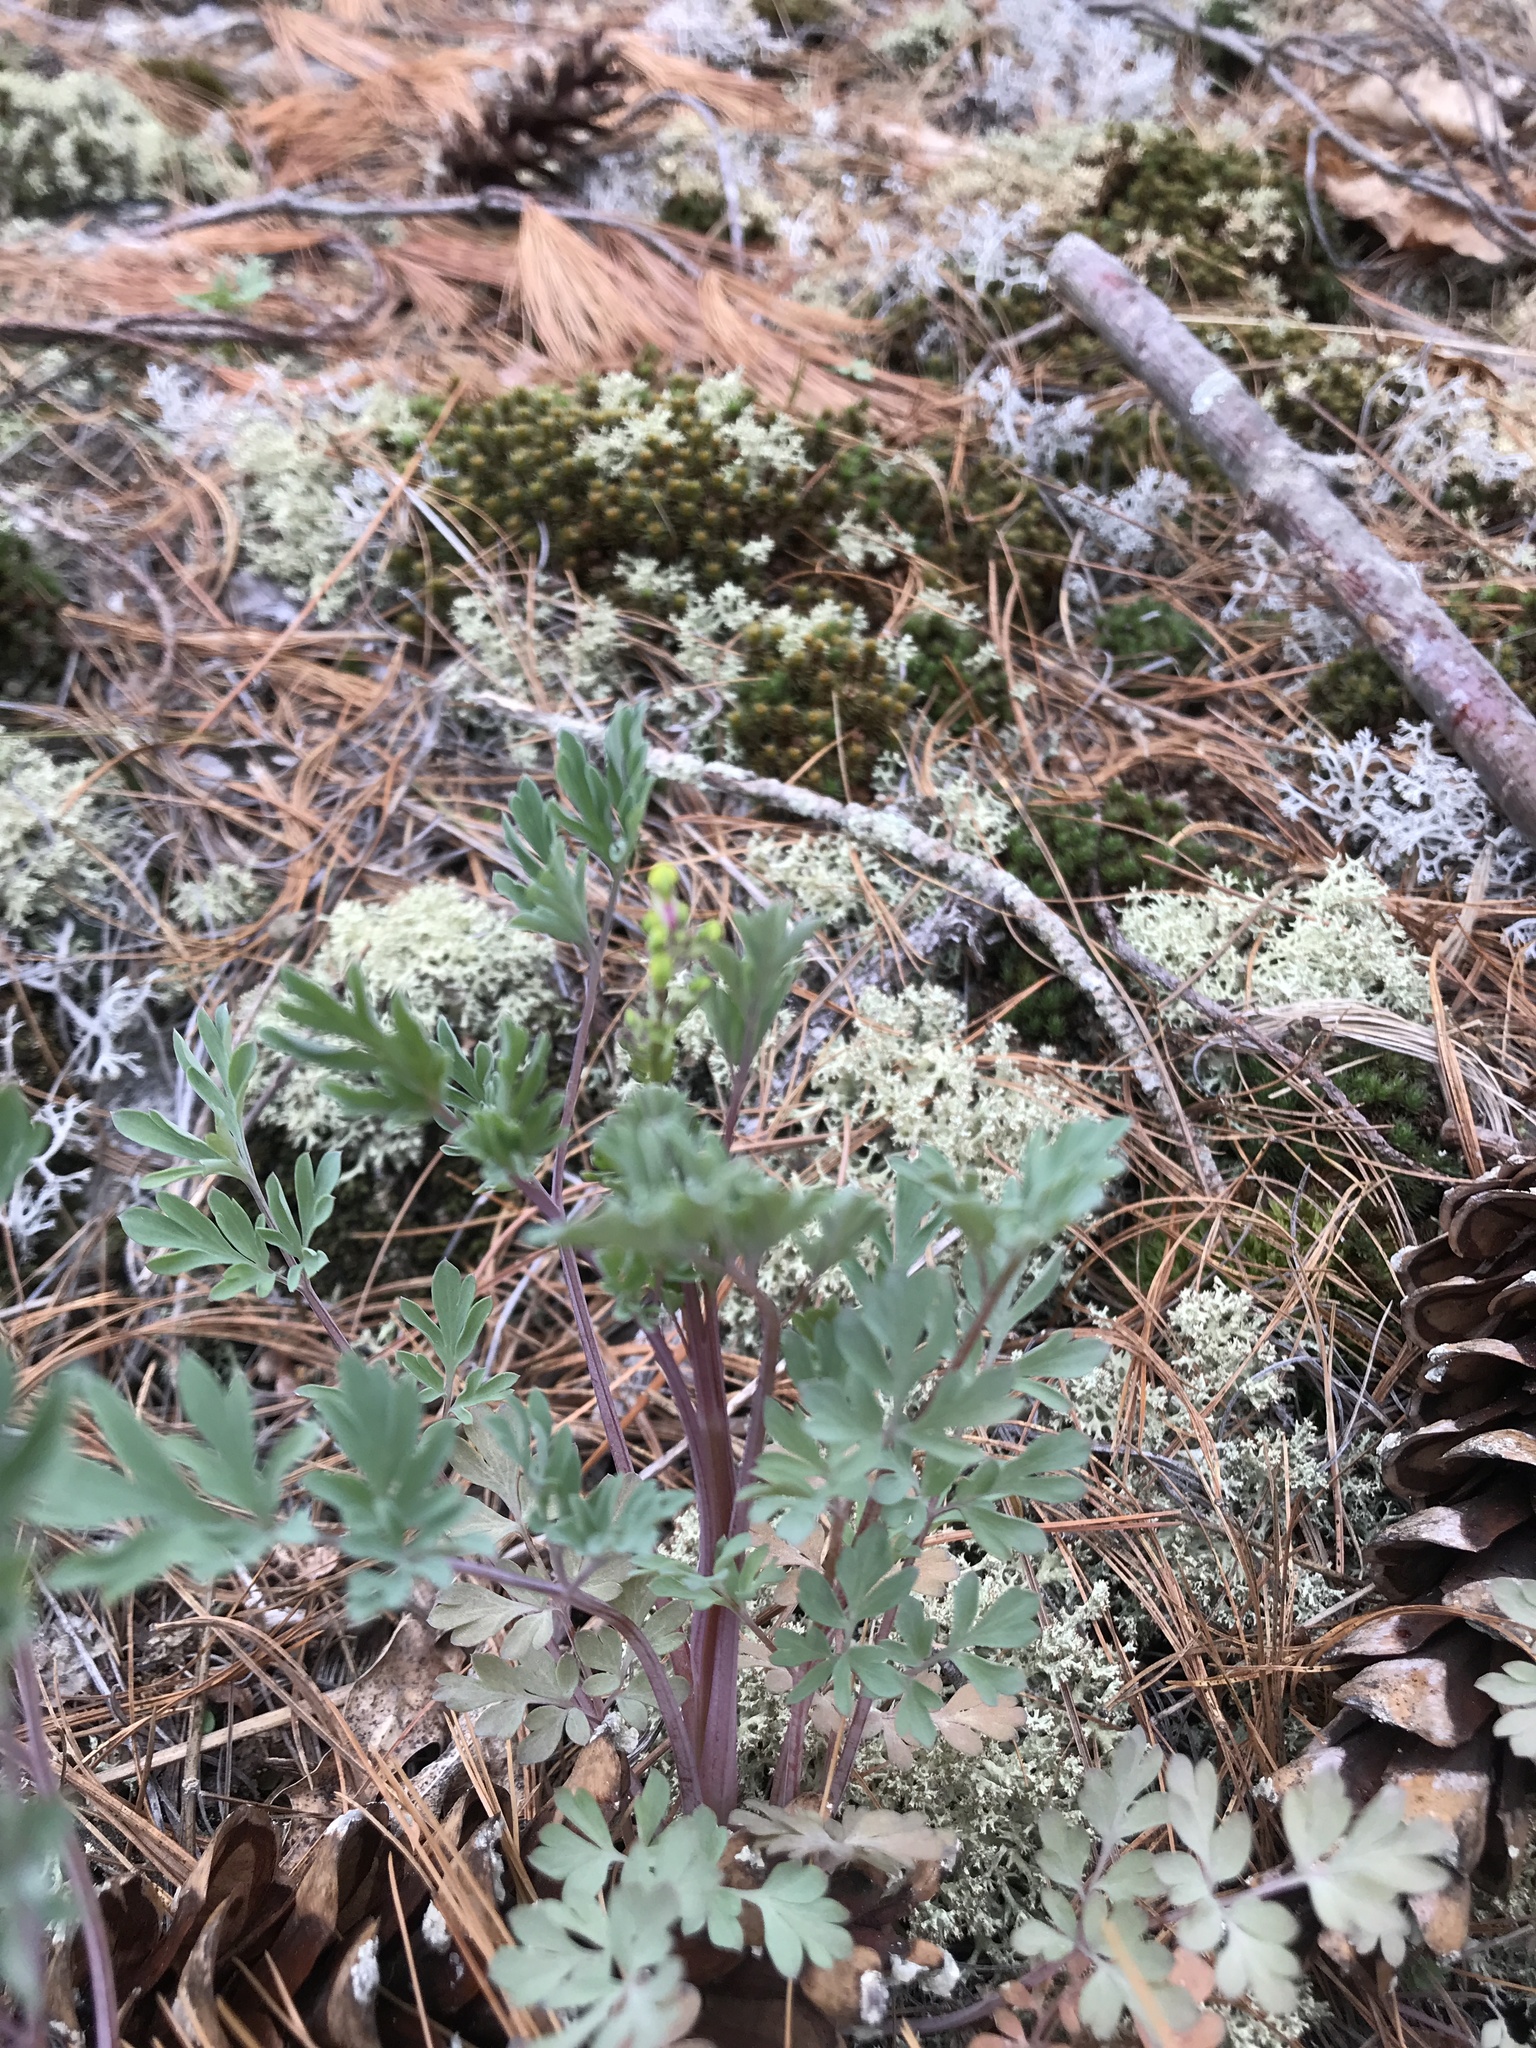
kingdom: Plantae
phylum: Tracheophyta
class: Magnoliopsida
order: Ranunculales
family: Papaveraceae
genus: Capnoides
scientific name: Capnoides sempervirens
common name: Rock harlequin
